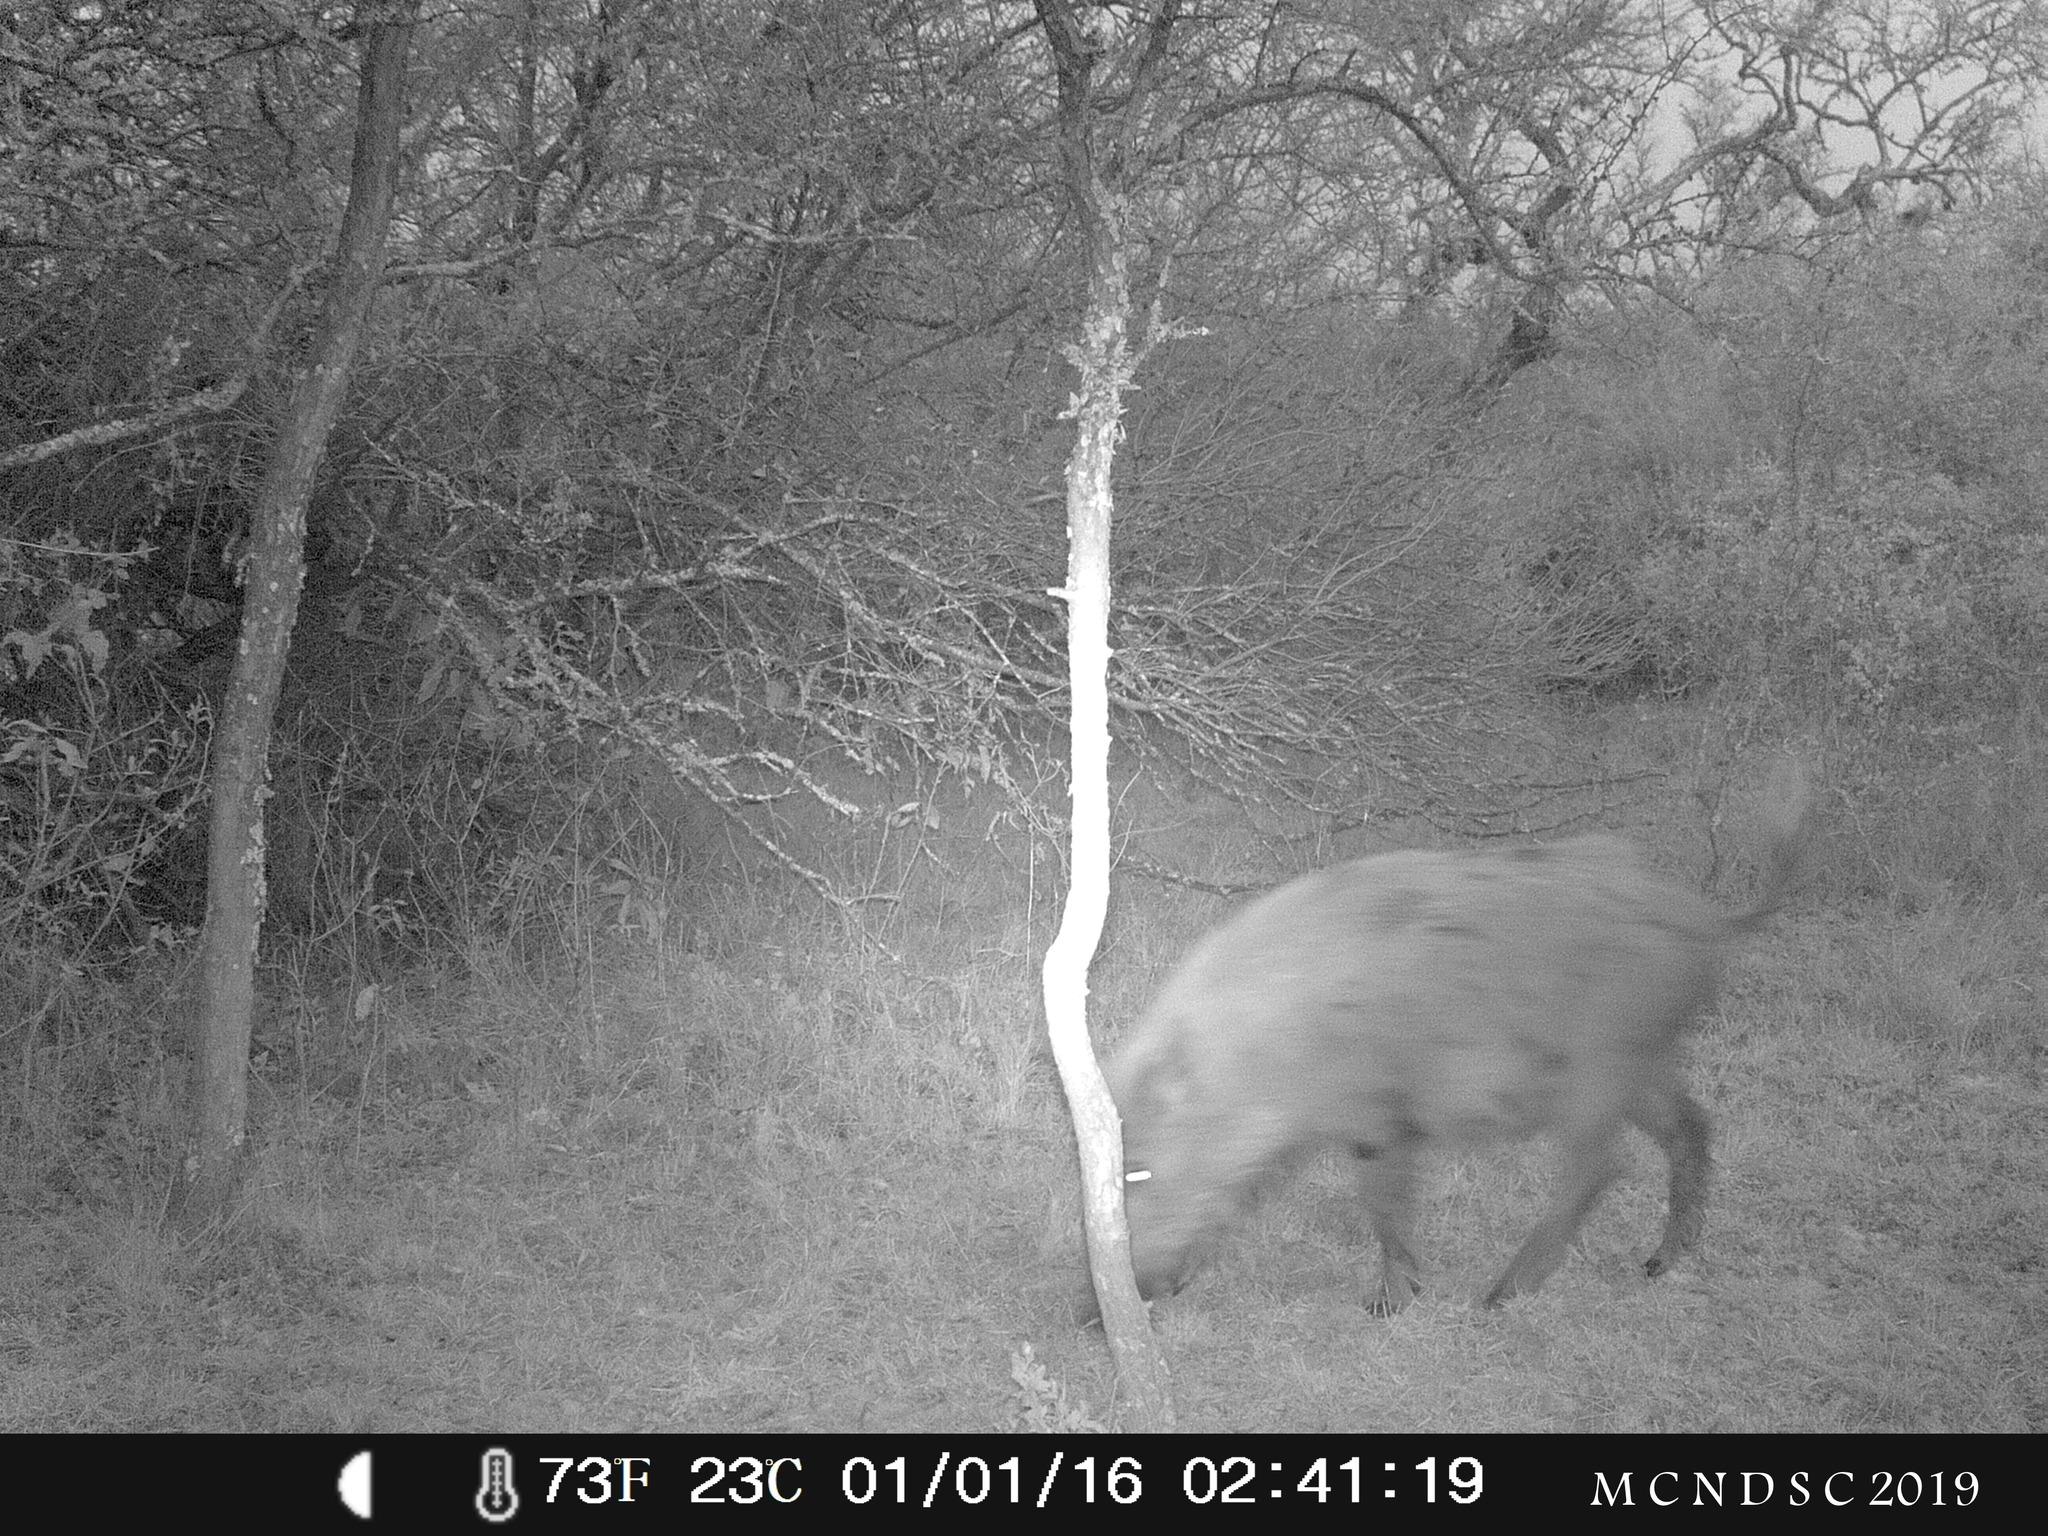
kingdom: Animalia
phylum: Chordata
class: Mammalia
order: Artiodactyla
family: Suidae
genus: Sus
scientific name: Sus scrofa
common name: Wild boar
